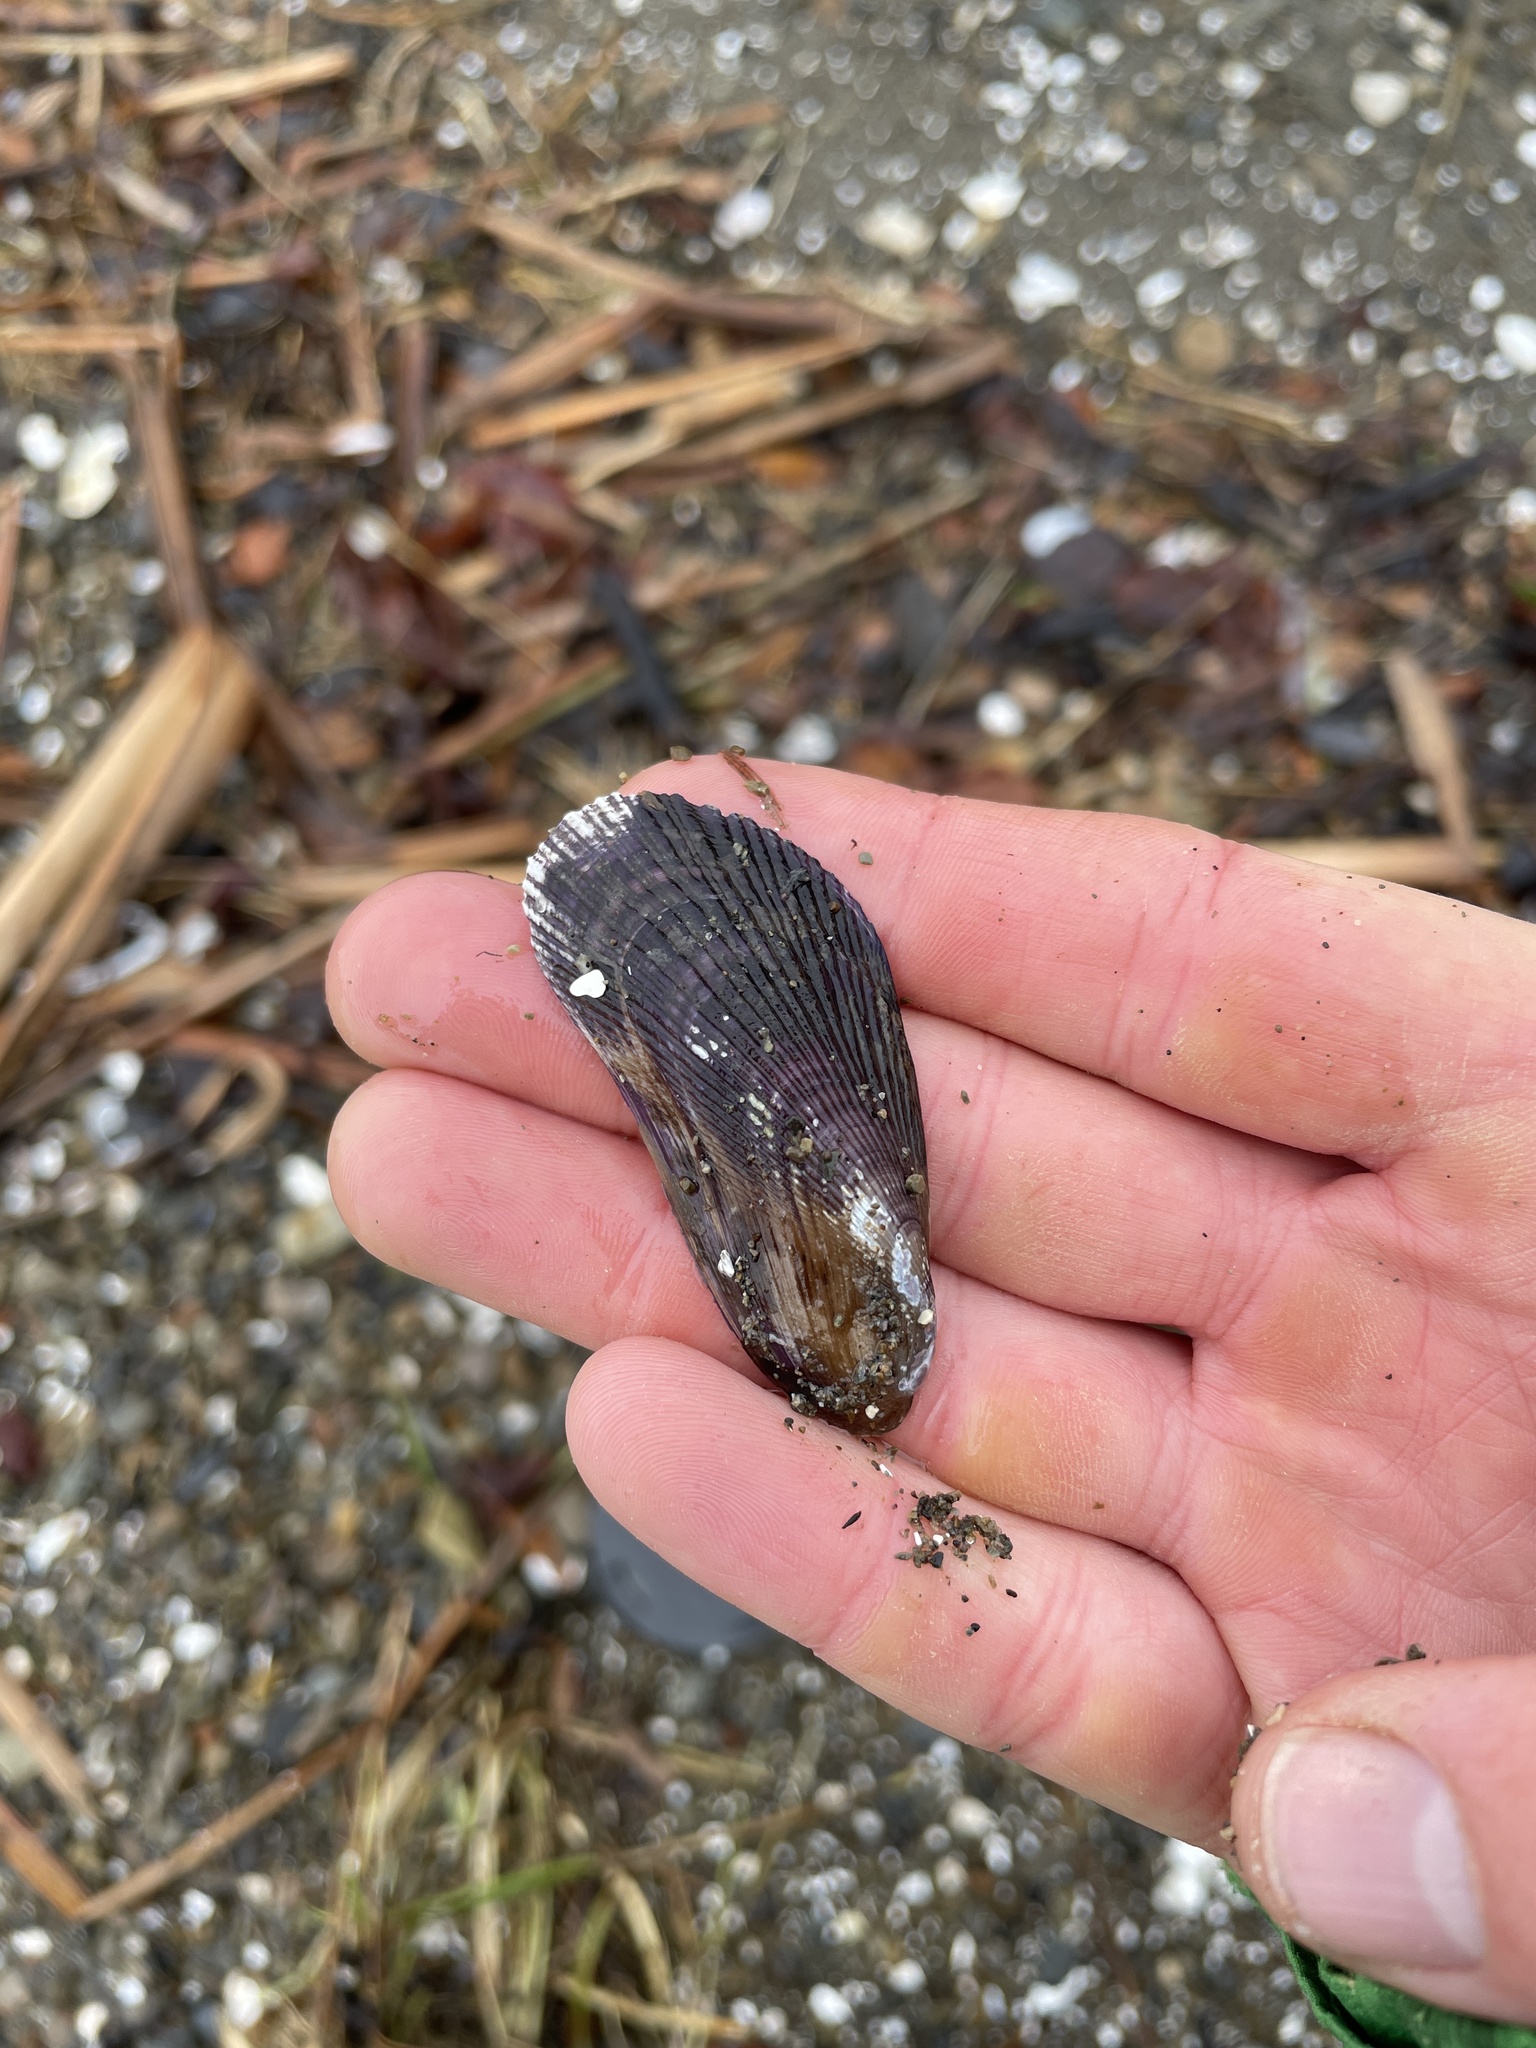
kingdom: Animalia
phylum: Mollusca
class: Bivalvia
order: Mytilida
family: Mytilidae
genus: Geukensia
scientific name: Geukensia demissa
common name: Ribbed mussel
